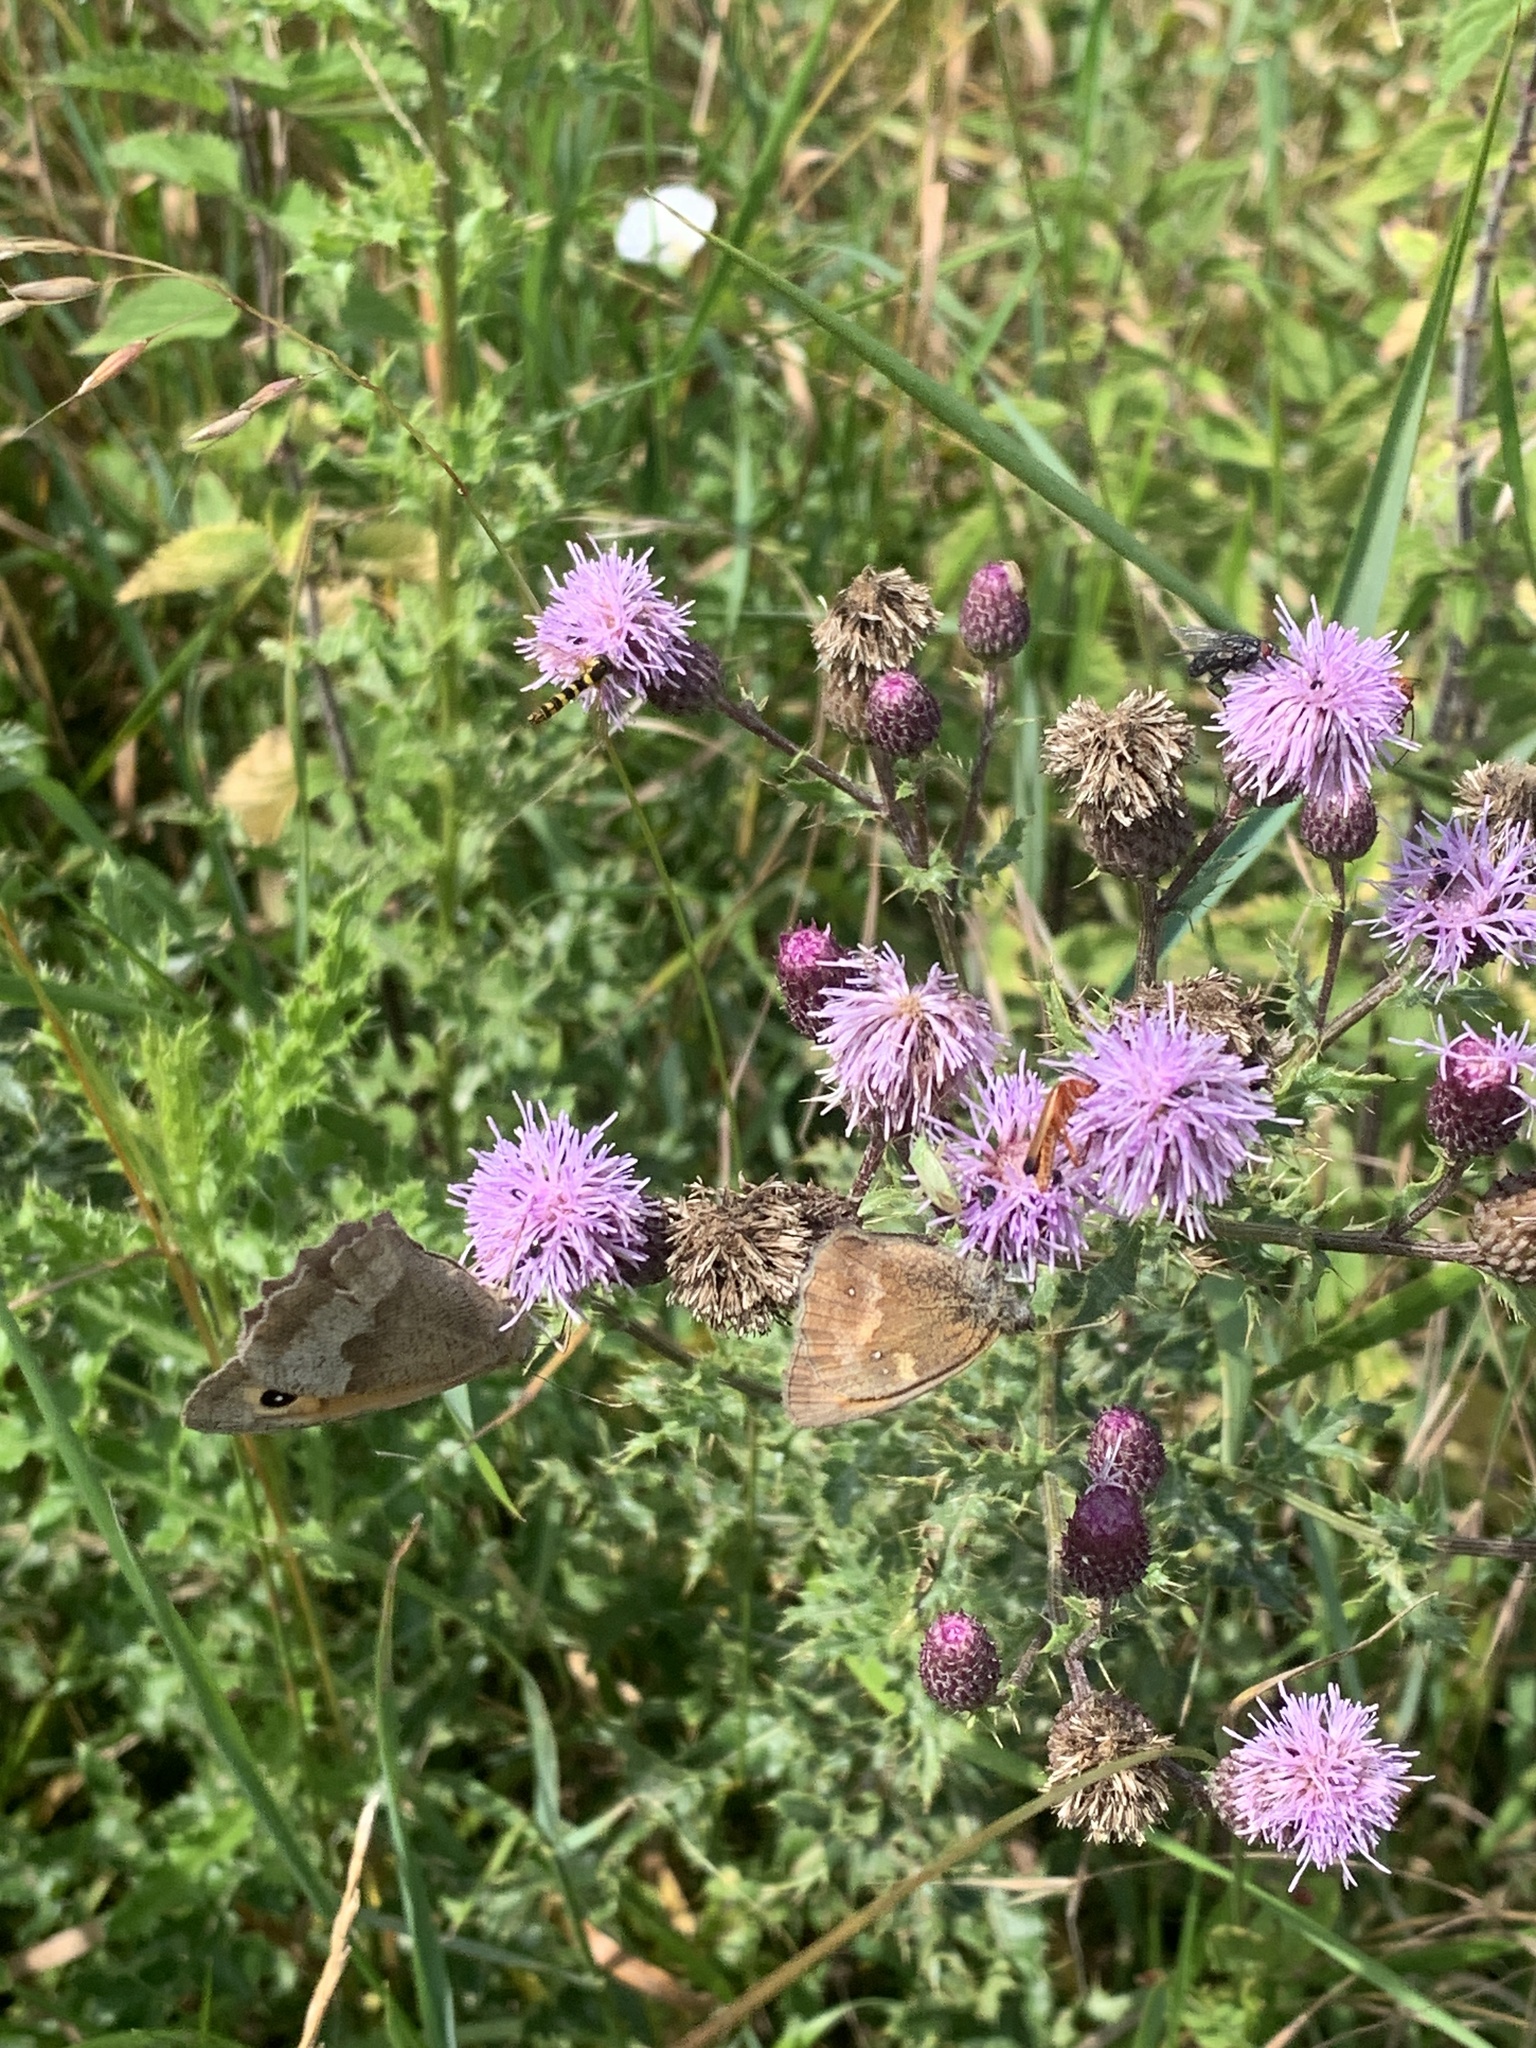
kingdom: Animalia
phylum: Arthropoda
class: Insecta
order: Lepidoptera
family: Nymphalidae
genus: Maniola
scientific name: Maniola jurtina
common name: Meadow brown
